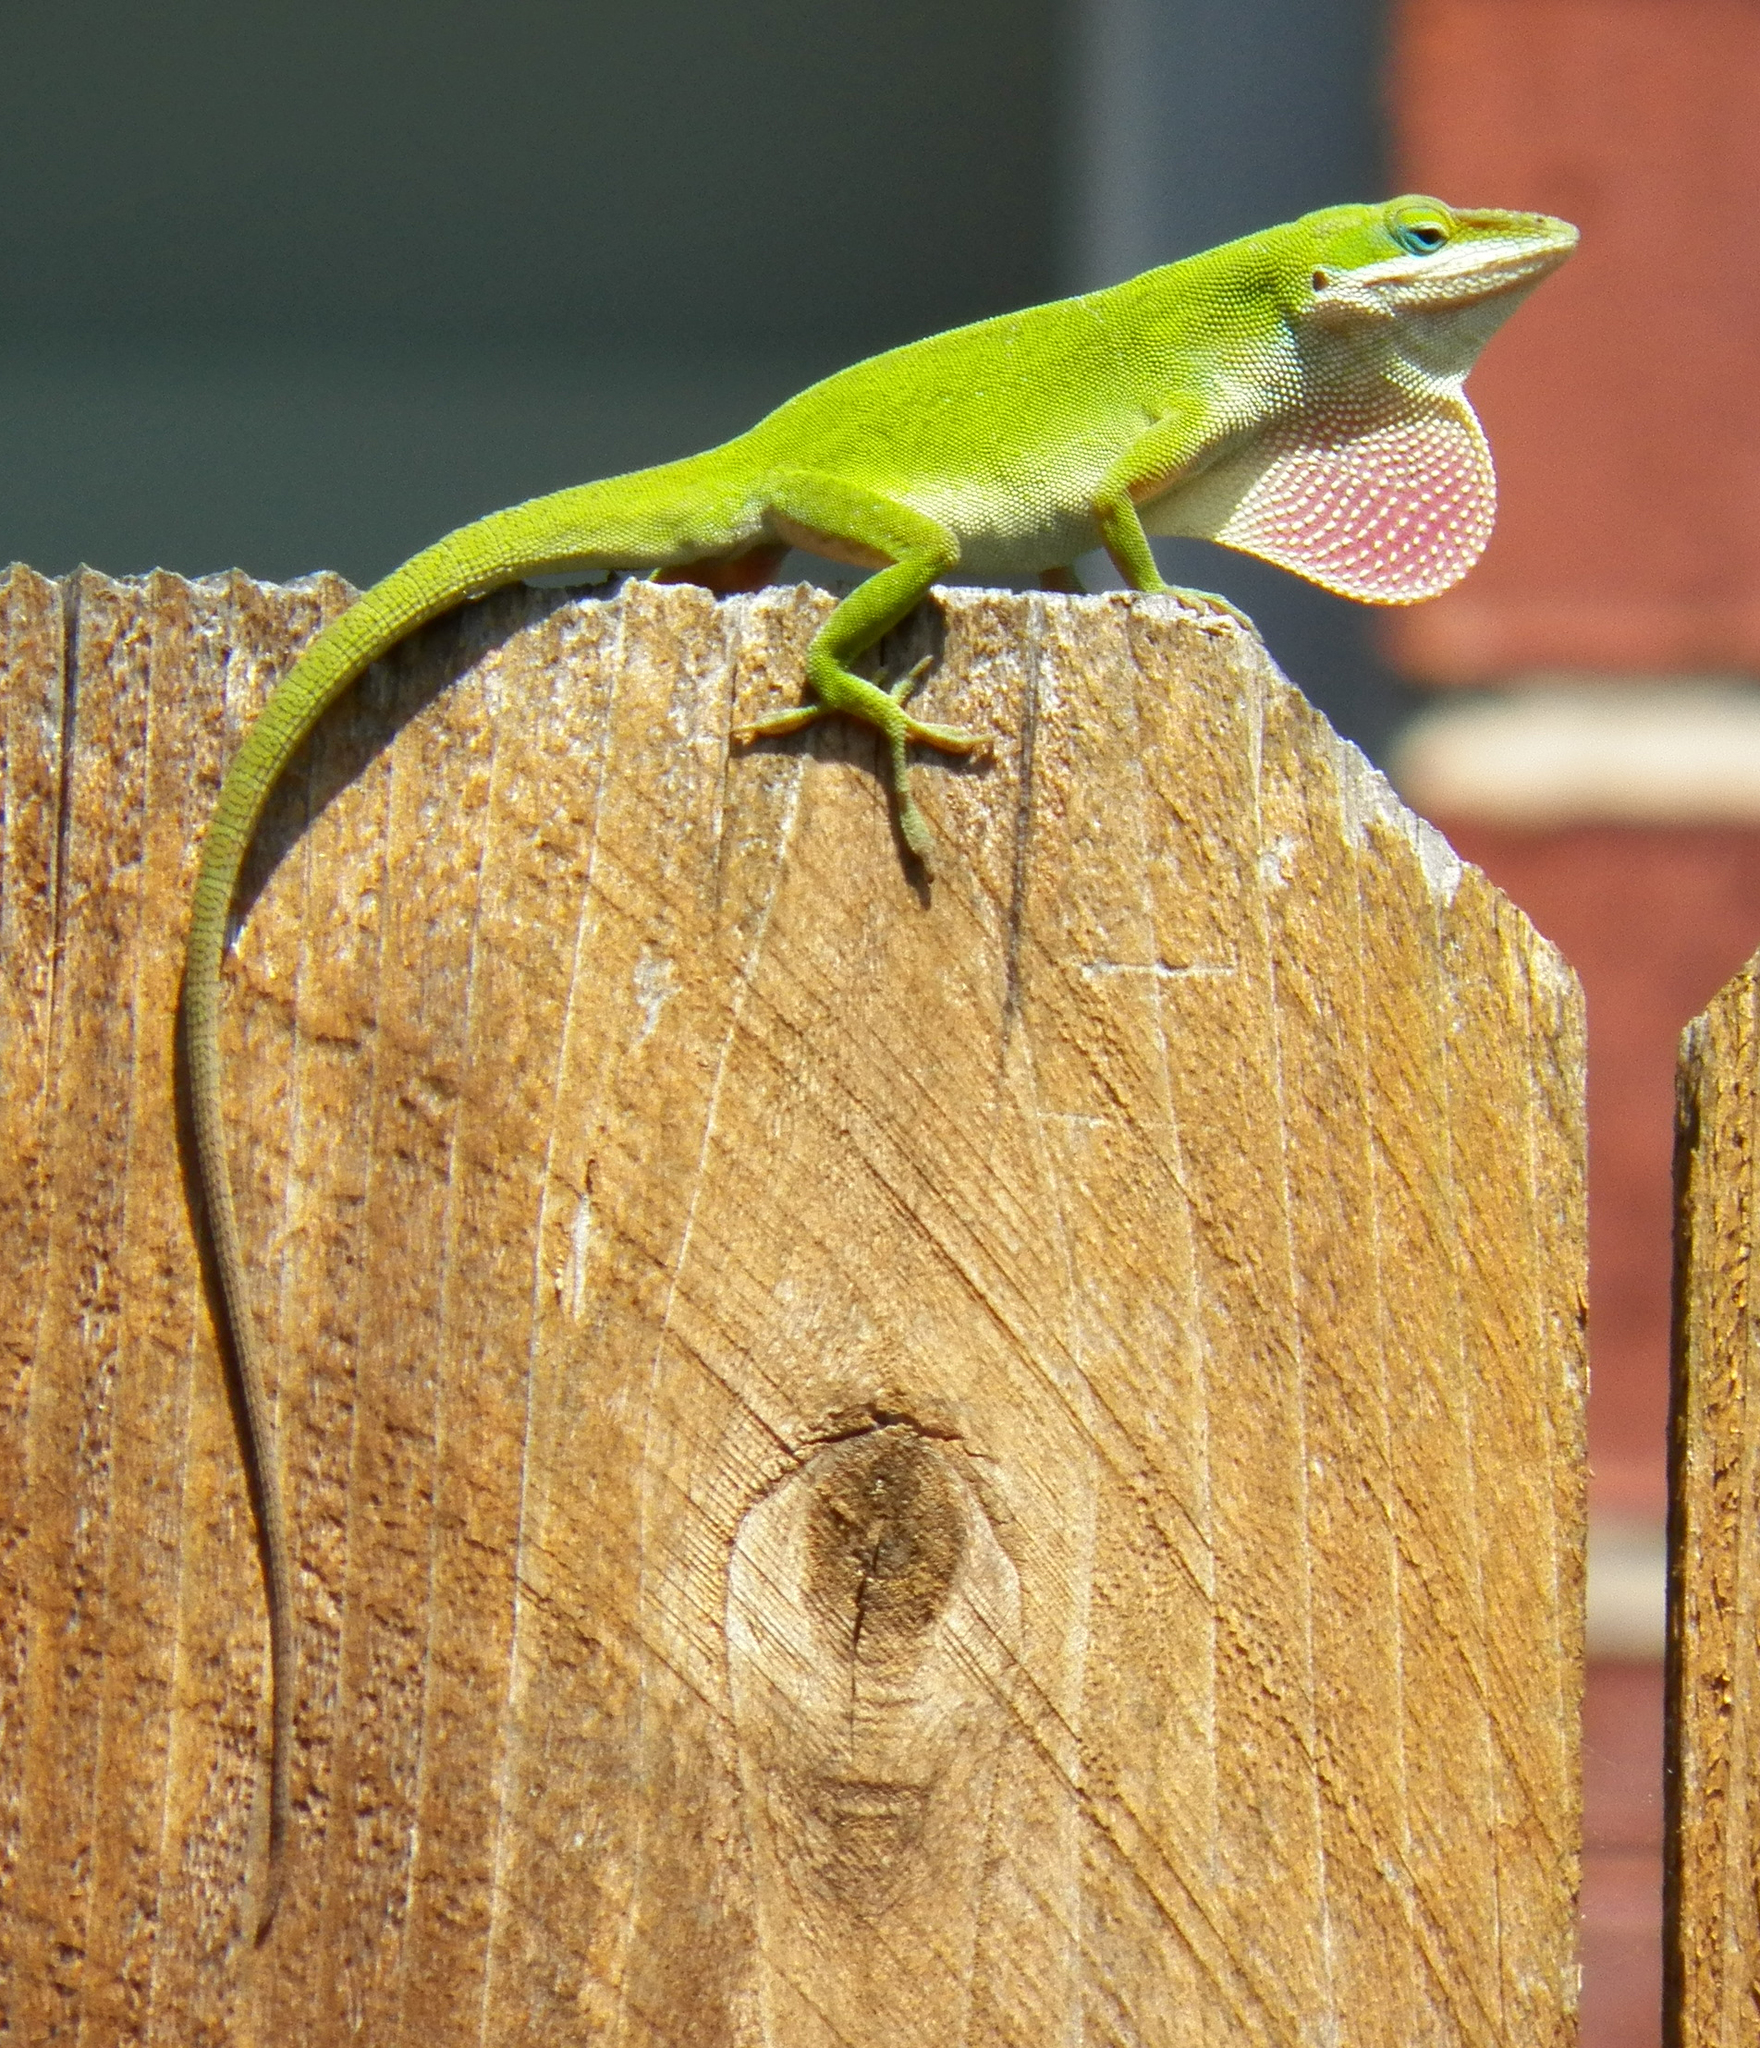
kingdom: Animalia
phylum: Chordata
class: Squamata
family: Dactyloidae
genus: Anolis
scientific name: Anolis carolinensis
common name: Green anole
